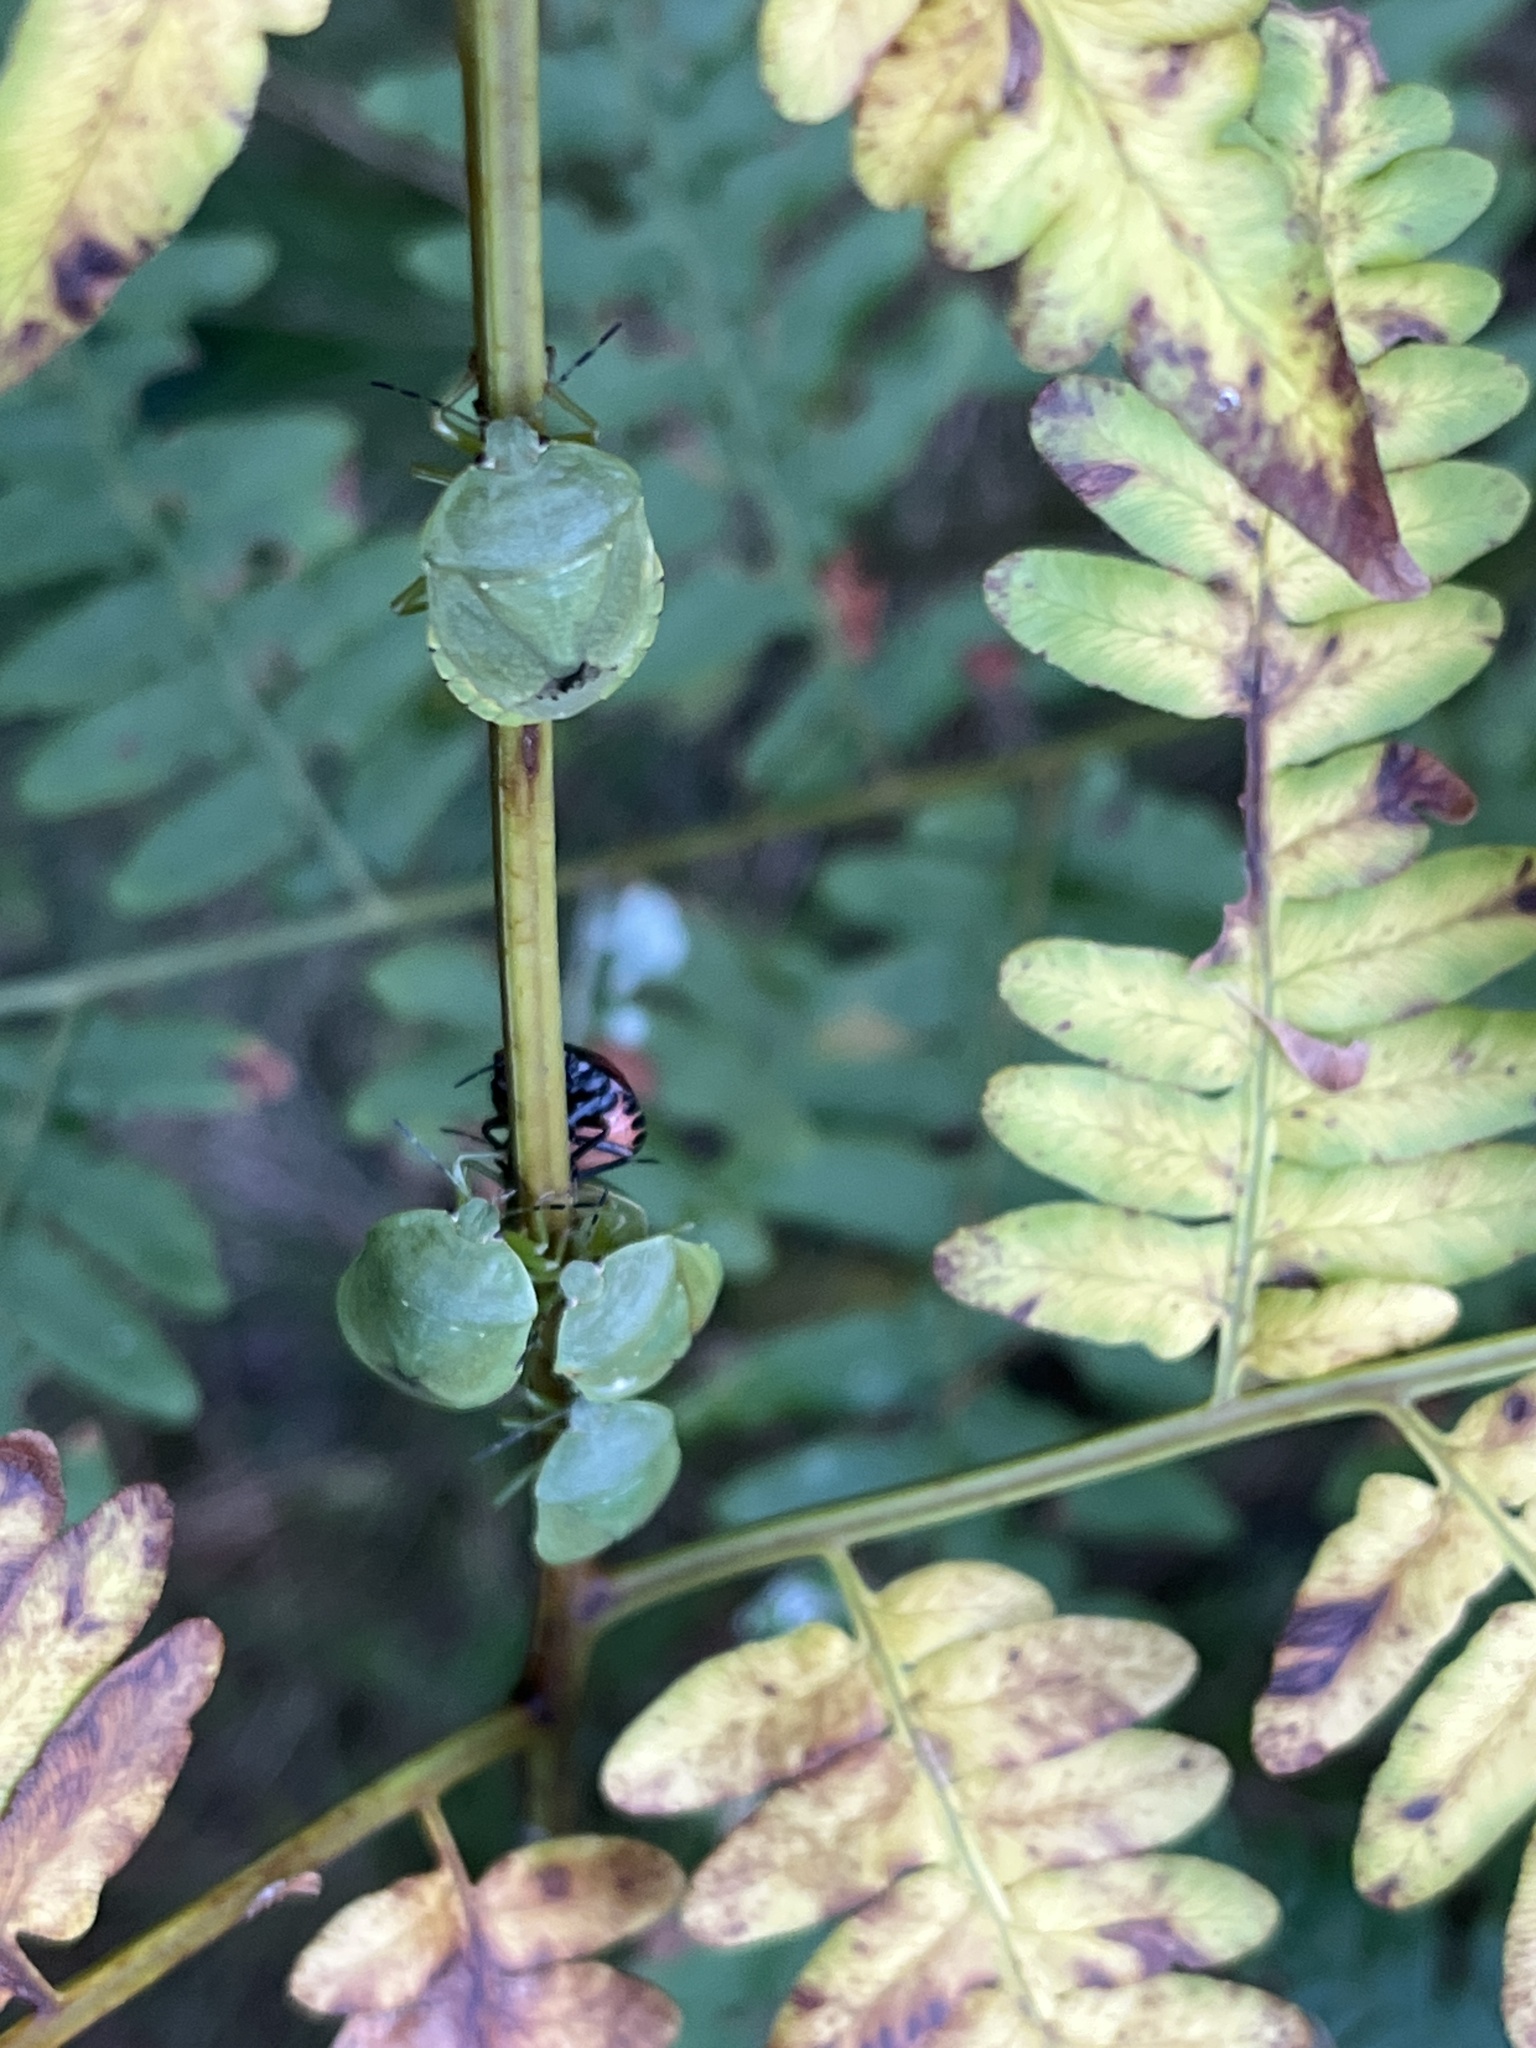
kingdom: Animalia
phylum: Arthropoda
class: Insecta
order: Hemiptera
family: Pentatomidae
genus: Chinavia
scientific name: Chinavia hilaris
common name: Green stink bug
